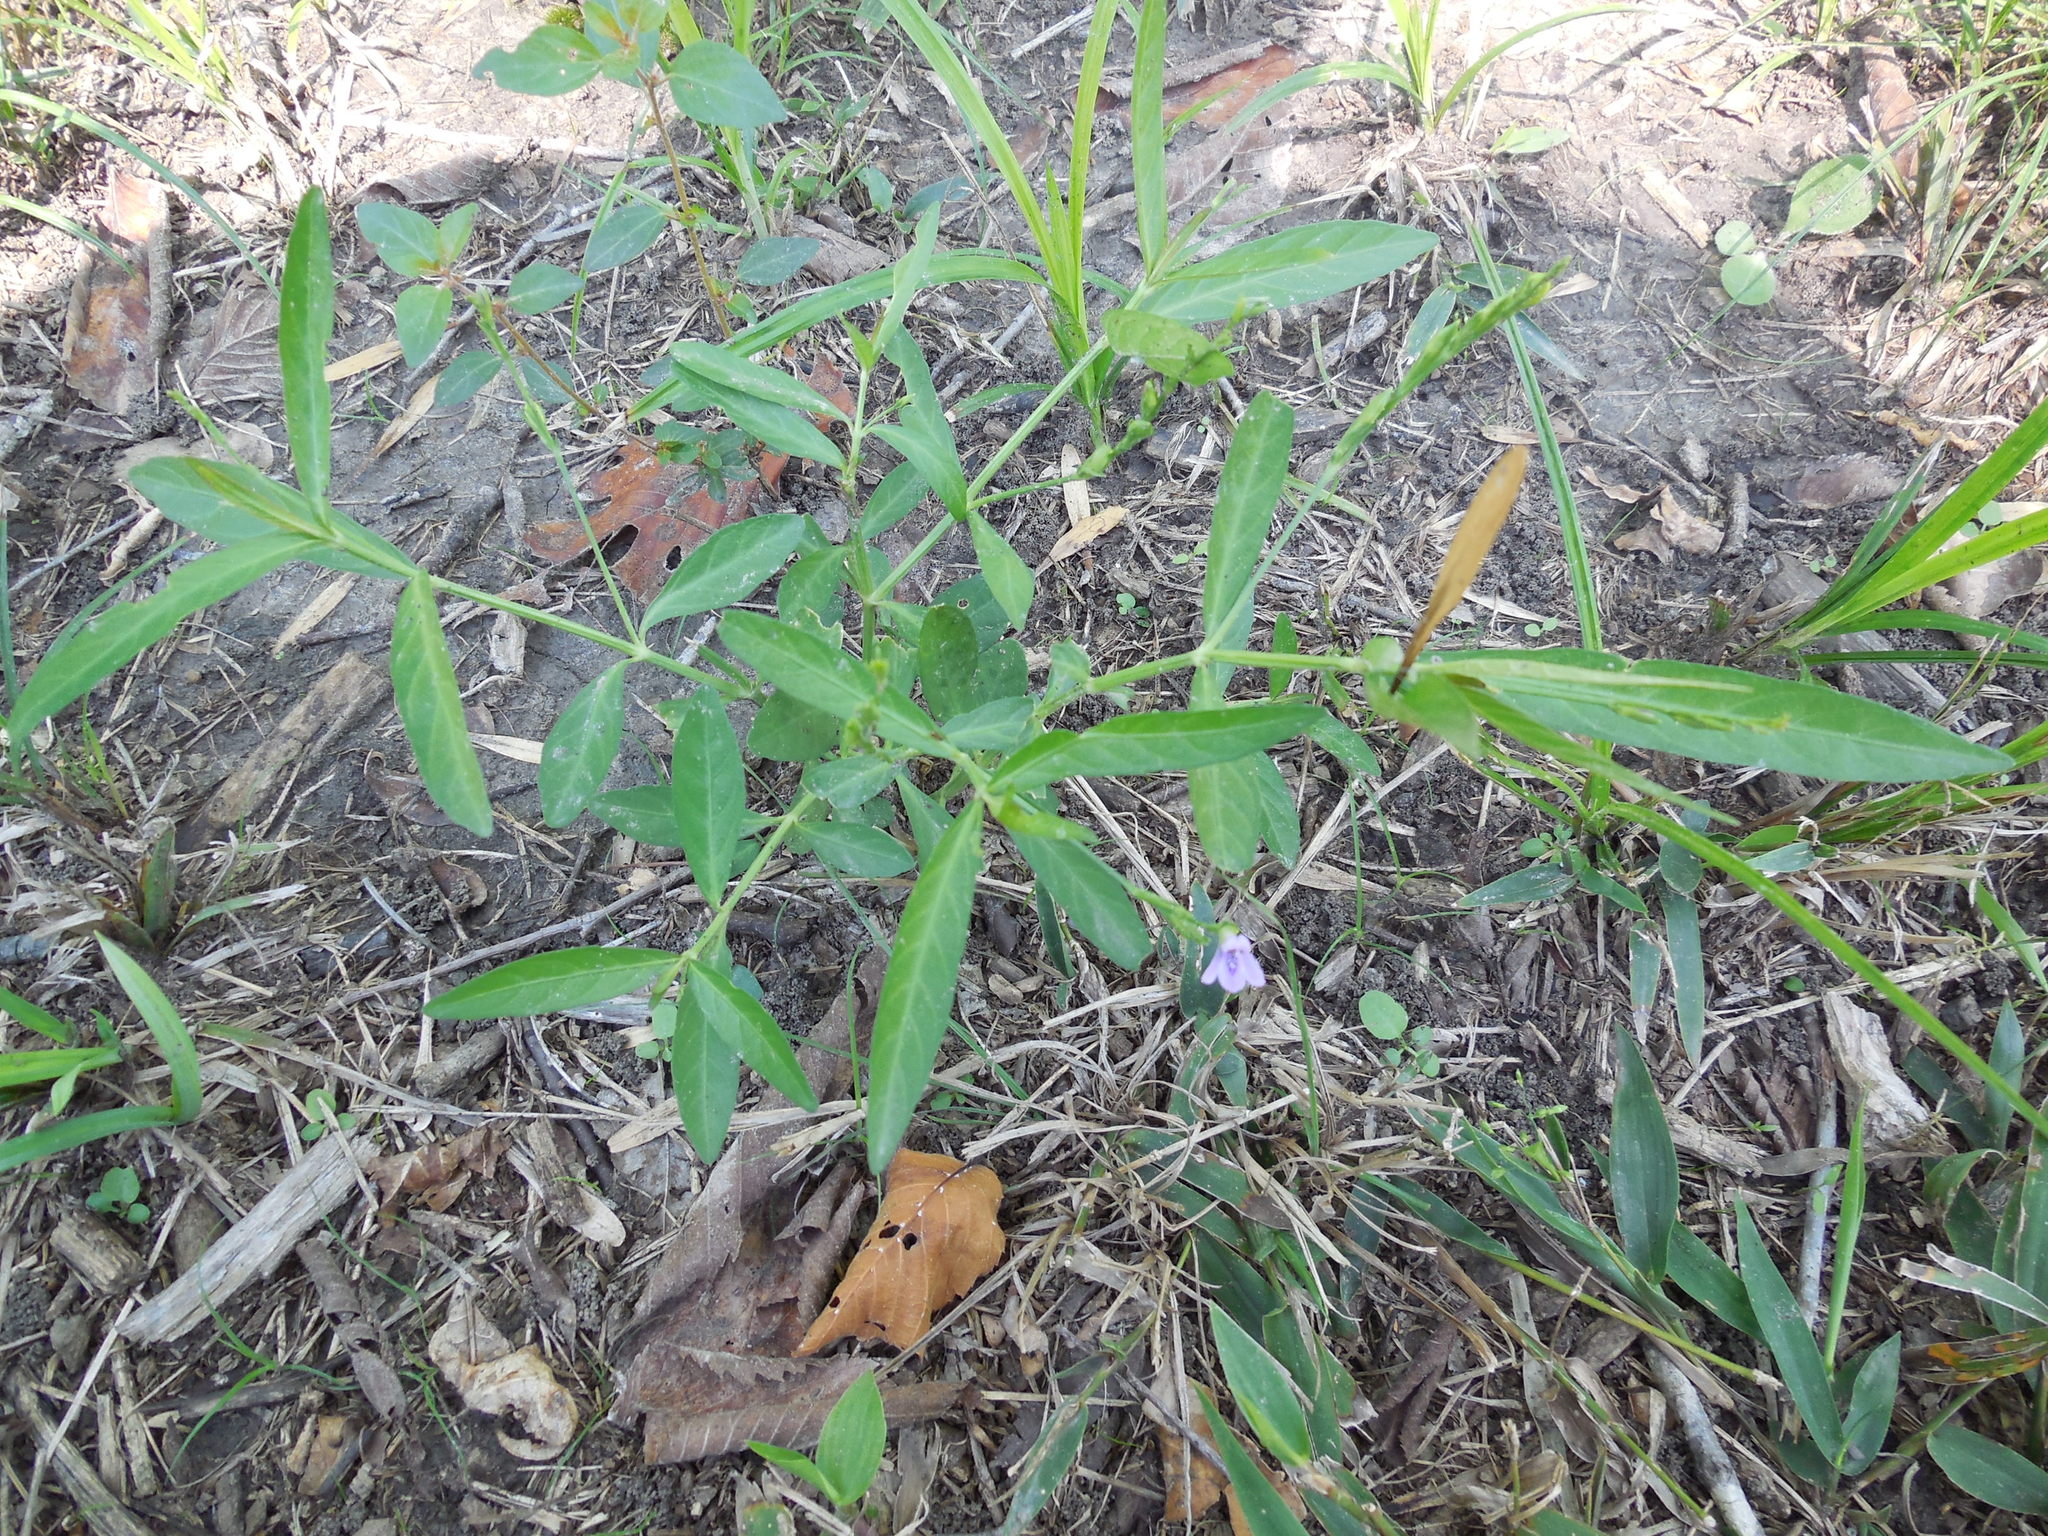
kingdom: Plantae
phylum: Tracheophyta
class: Magnoliopsida
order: Lamiales
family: Acanthaceae
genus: Justicia
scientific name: Justicia lanceolata
